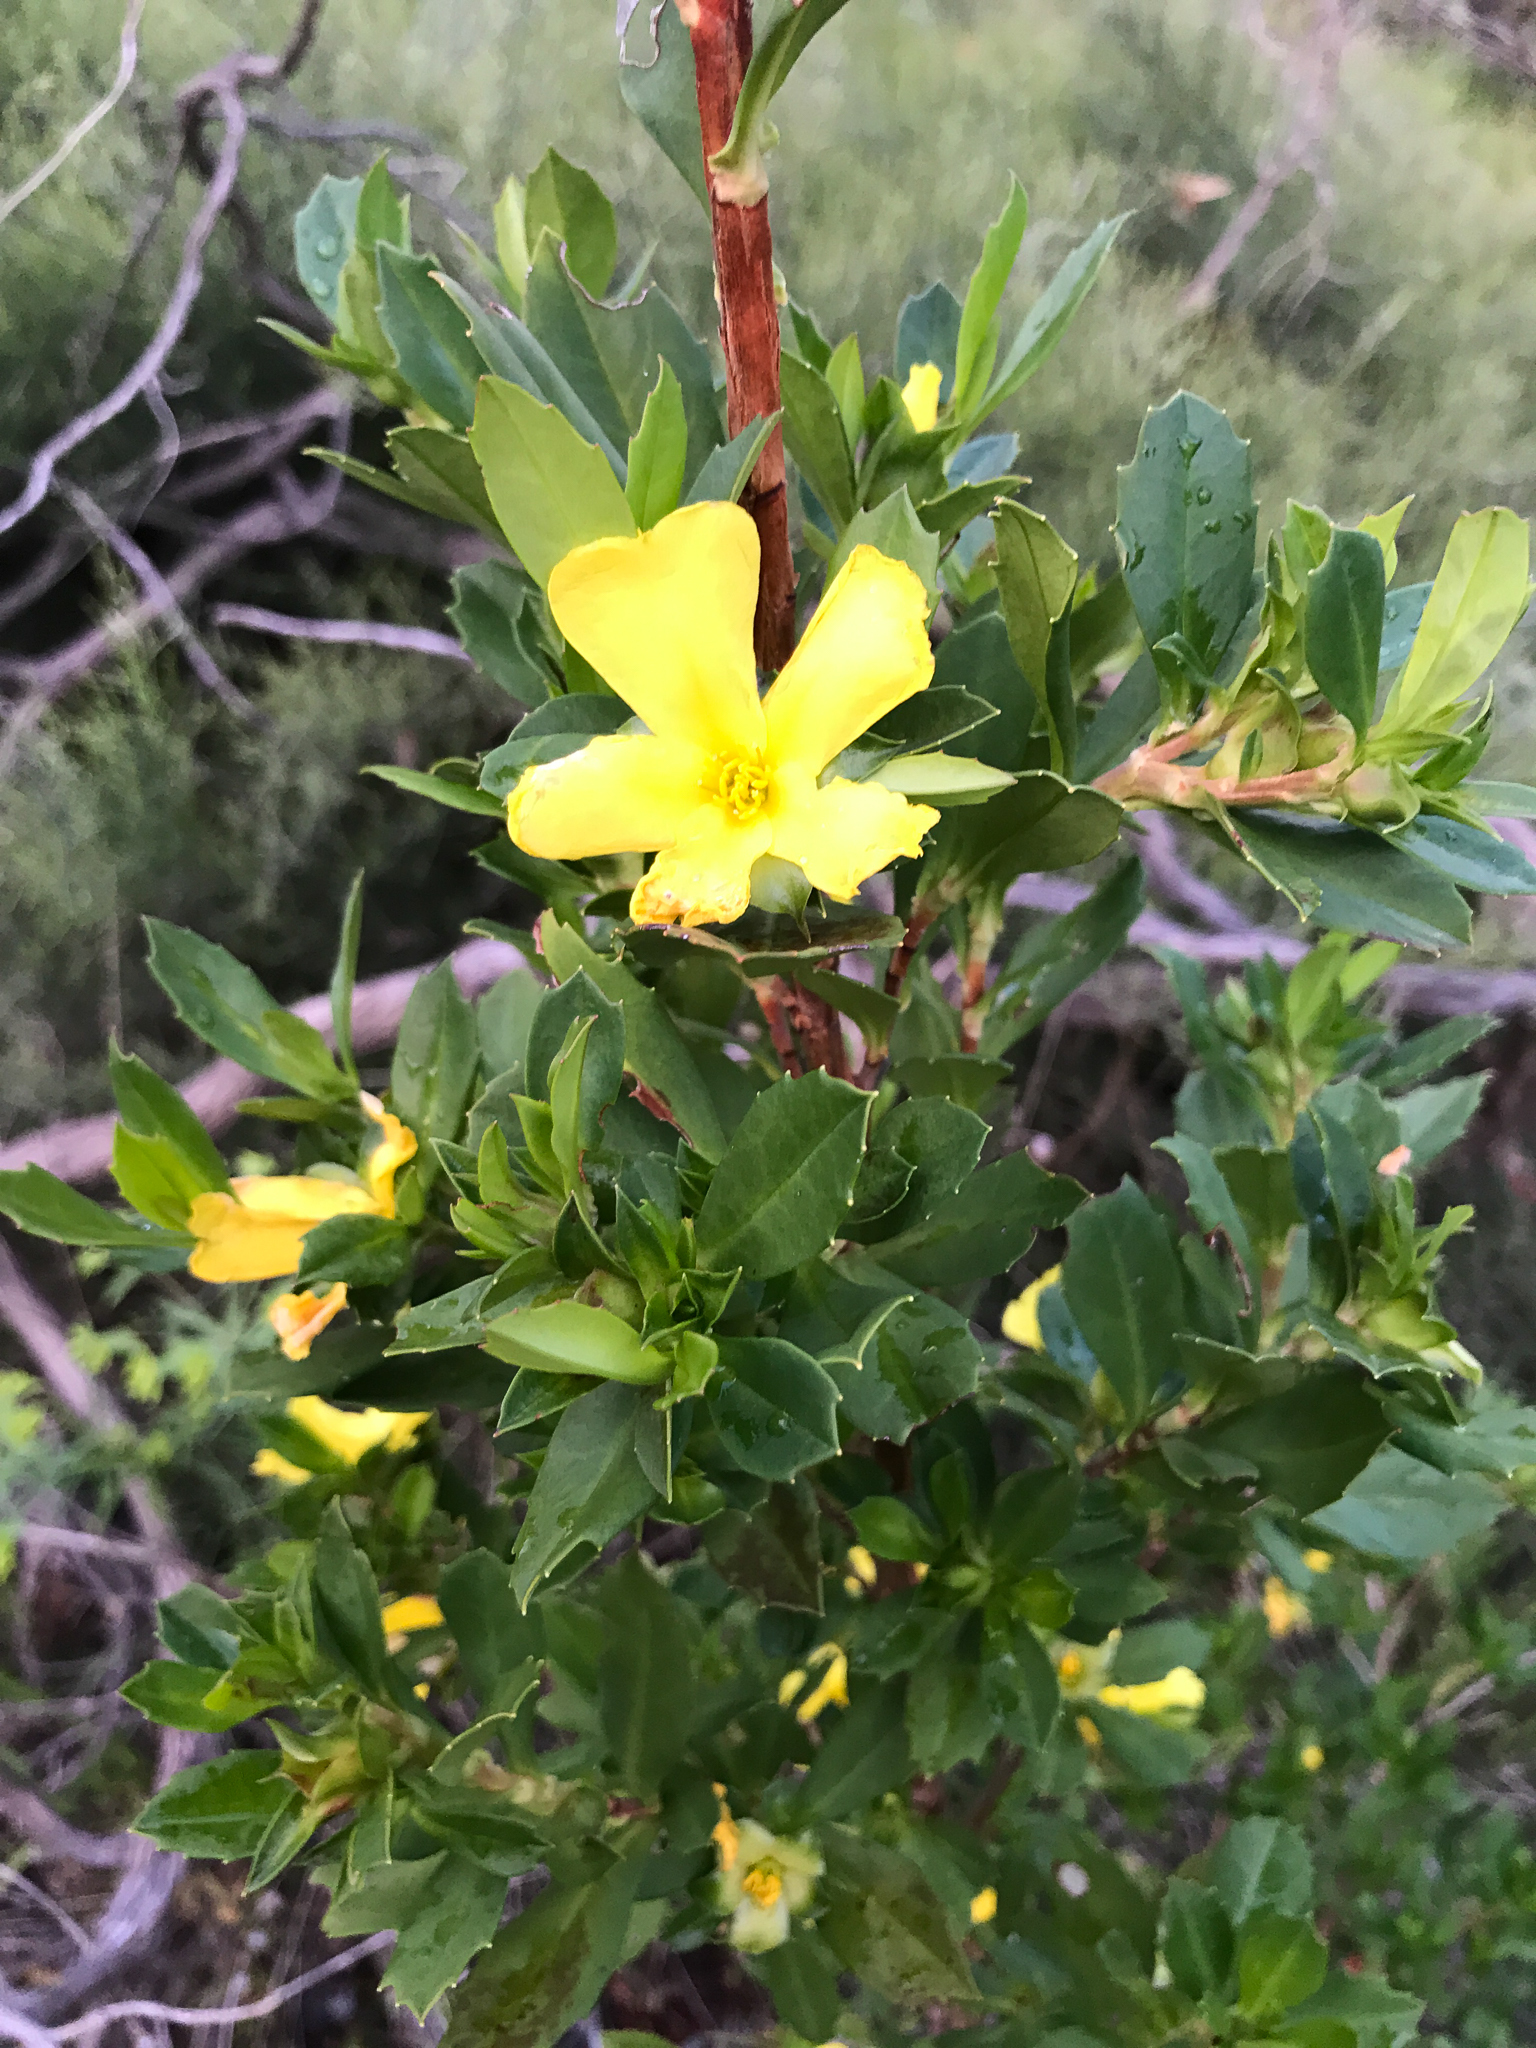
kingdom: Plantae
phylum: Tracheophyta
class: Magnoliopsida
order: Dilleniales
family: Dilleniaceae
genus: Hibbertia
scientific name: Hibbertia cuneiformis
